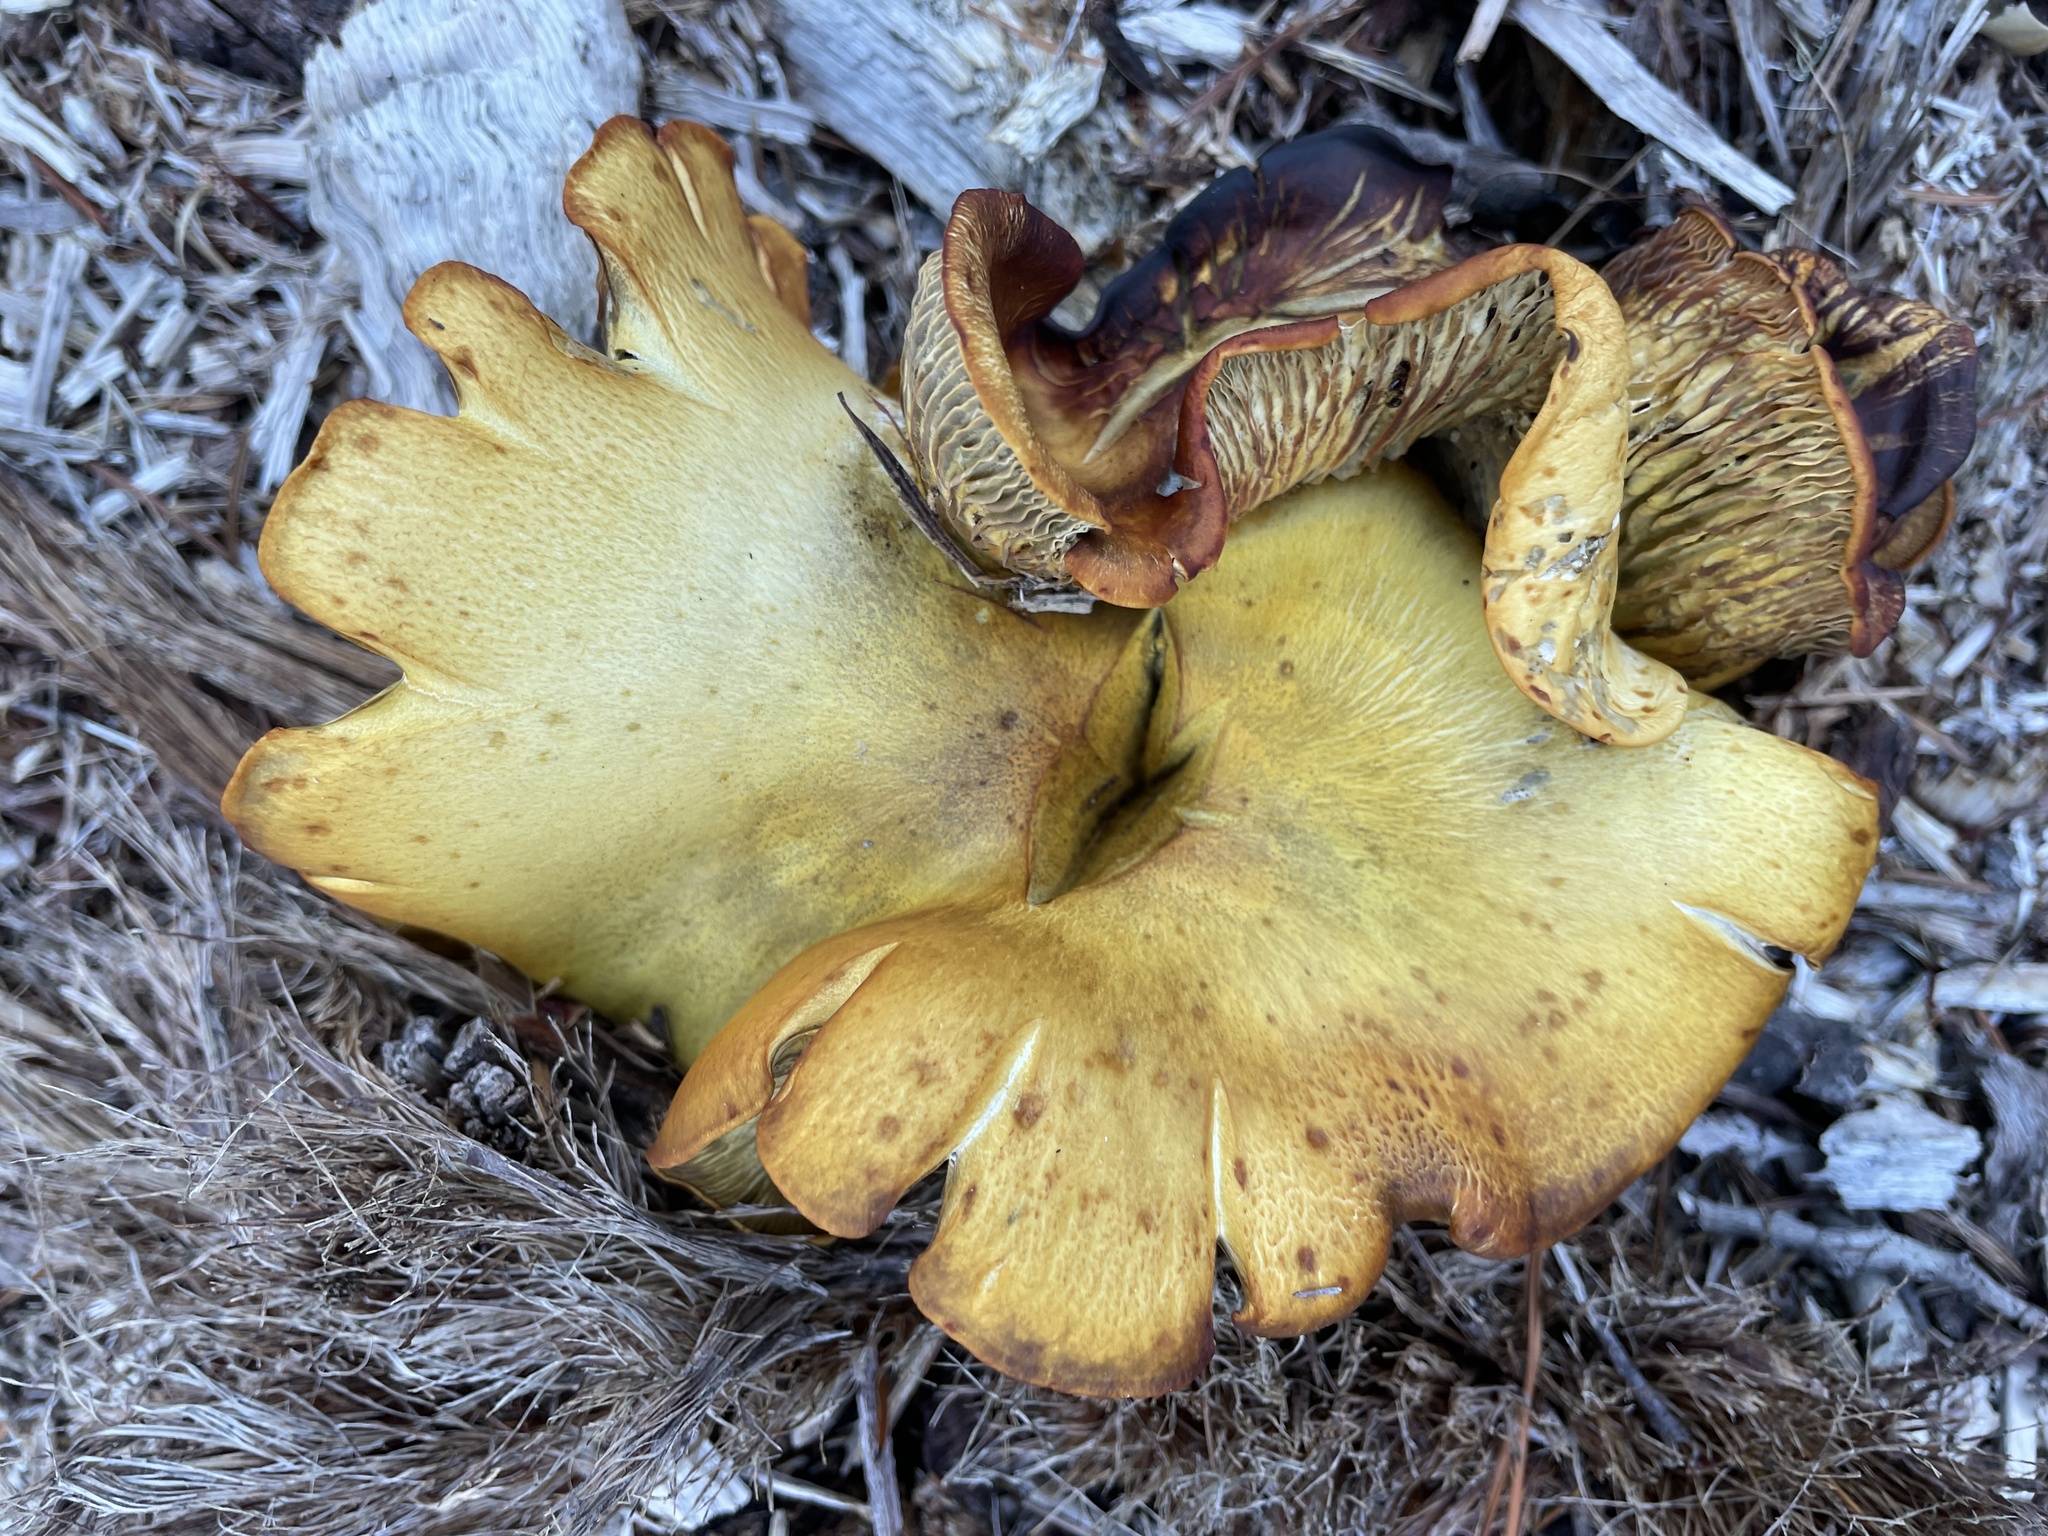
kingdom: Fungi
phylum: Basidiomycota
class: Agaricomycetes
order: Agaricales
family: Omphalotaceae
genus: Omphalotus
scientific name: Omphalotus olivascens
